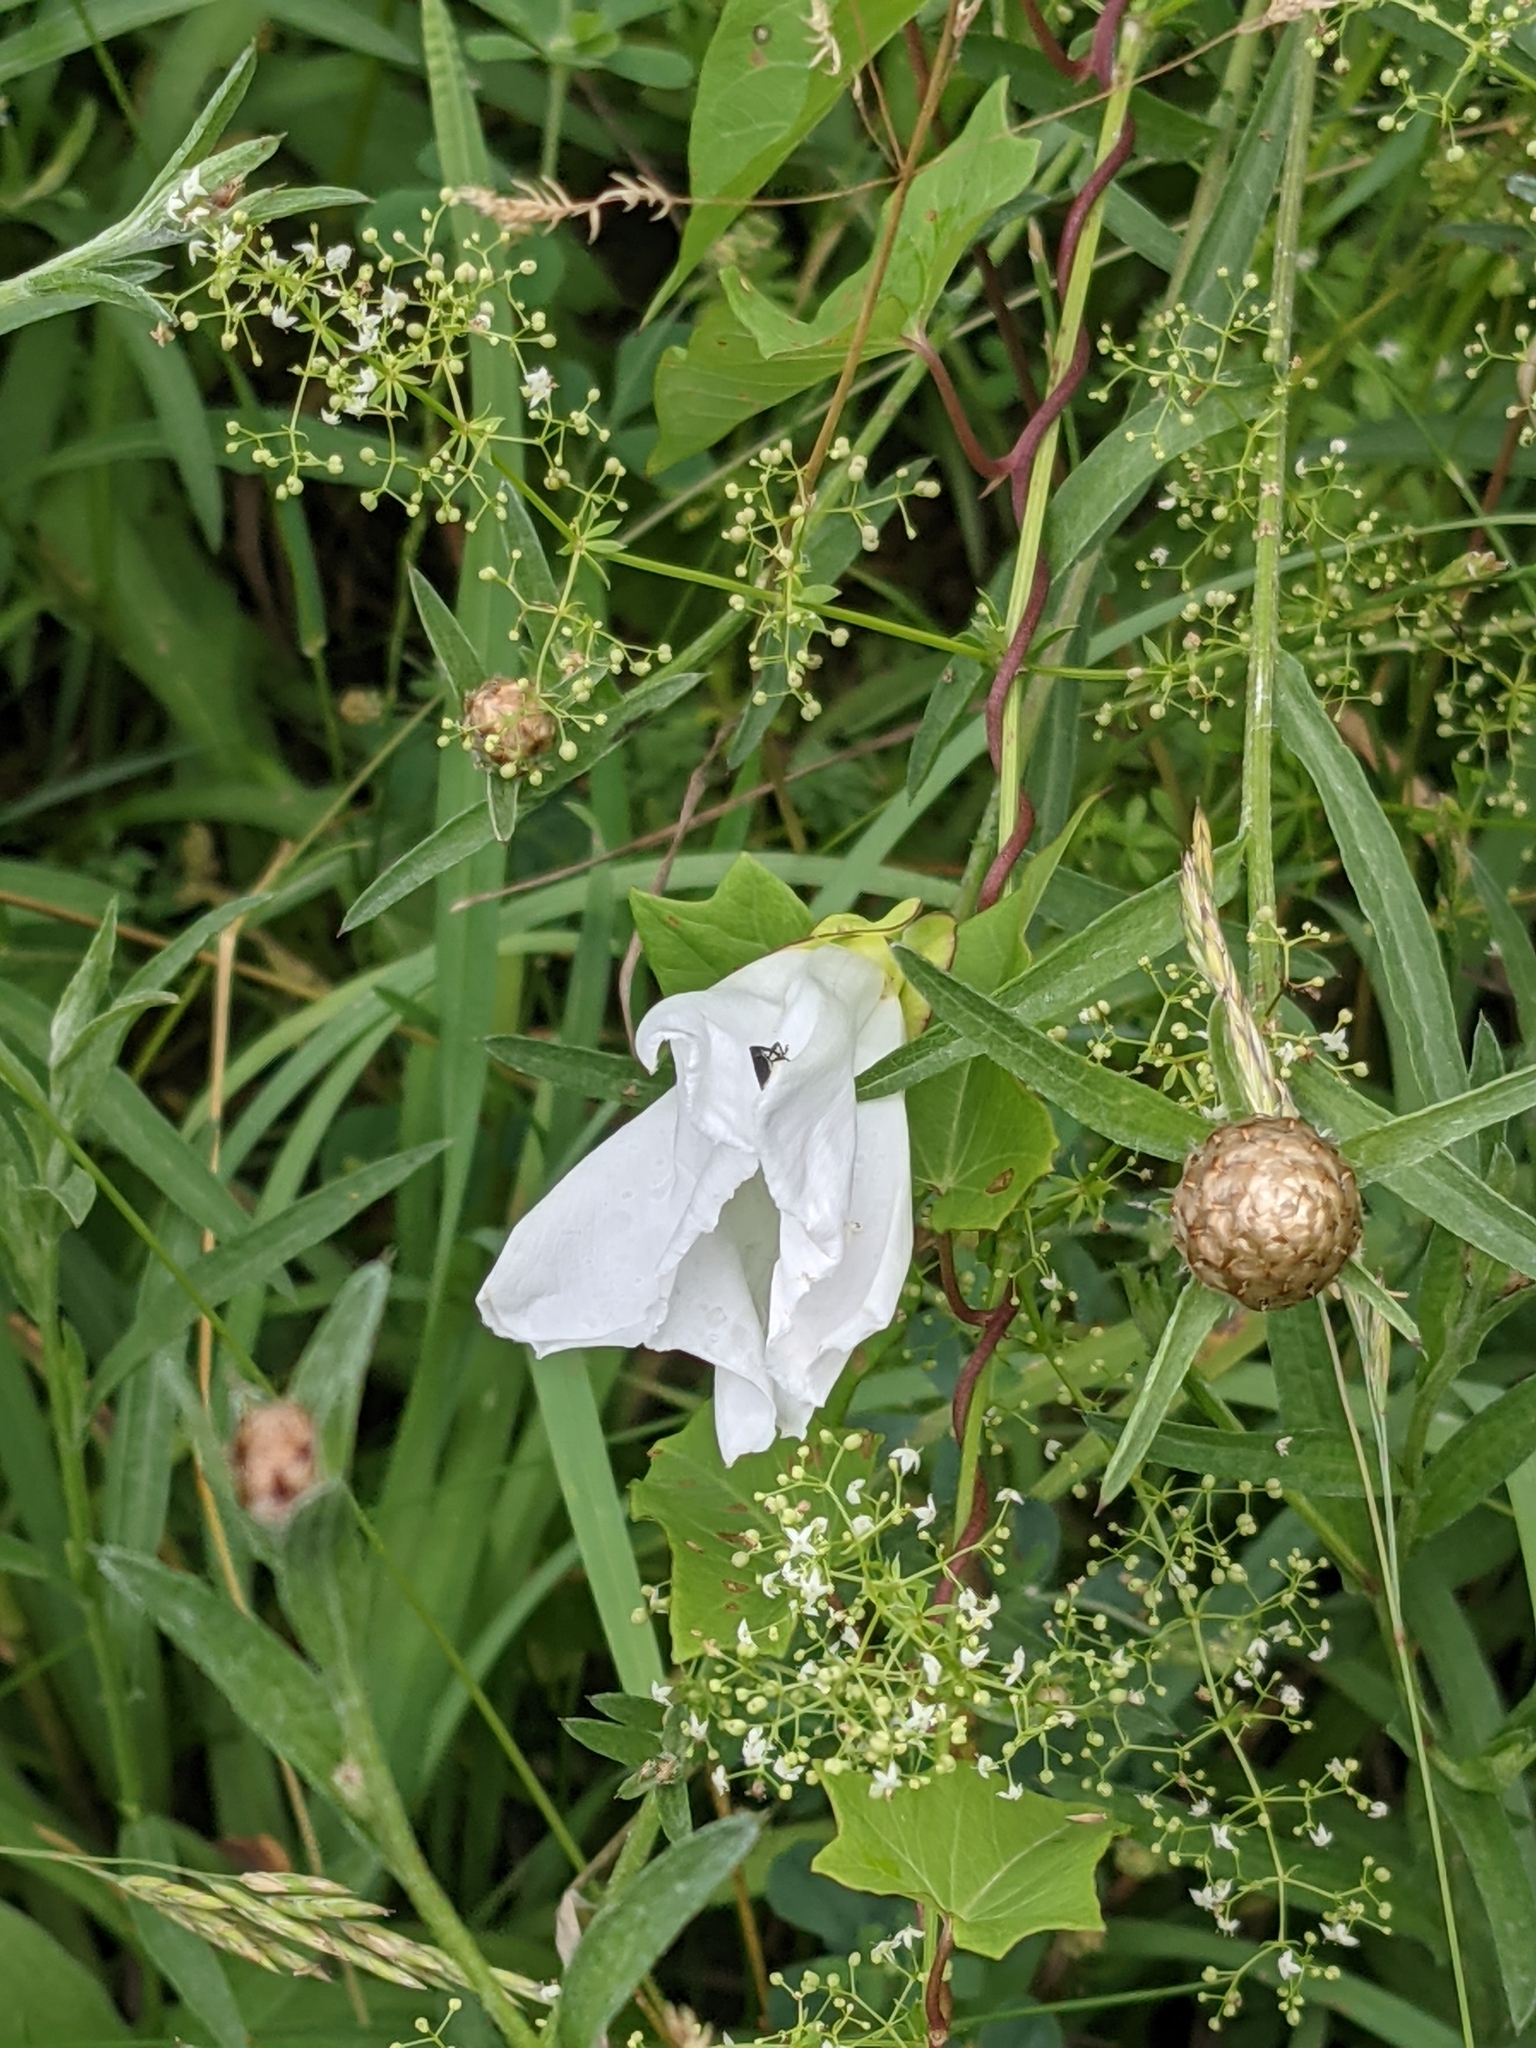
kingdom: Plantae
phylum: Tracheophyta
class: Magnoliopsida
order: Solanales
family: Convolvulaceae
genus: Calystegia
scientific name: Calystegia sepium
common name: Hedge bindweed
